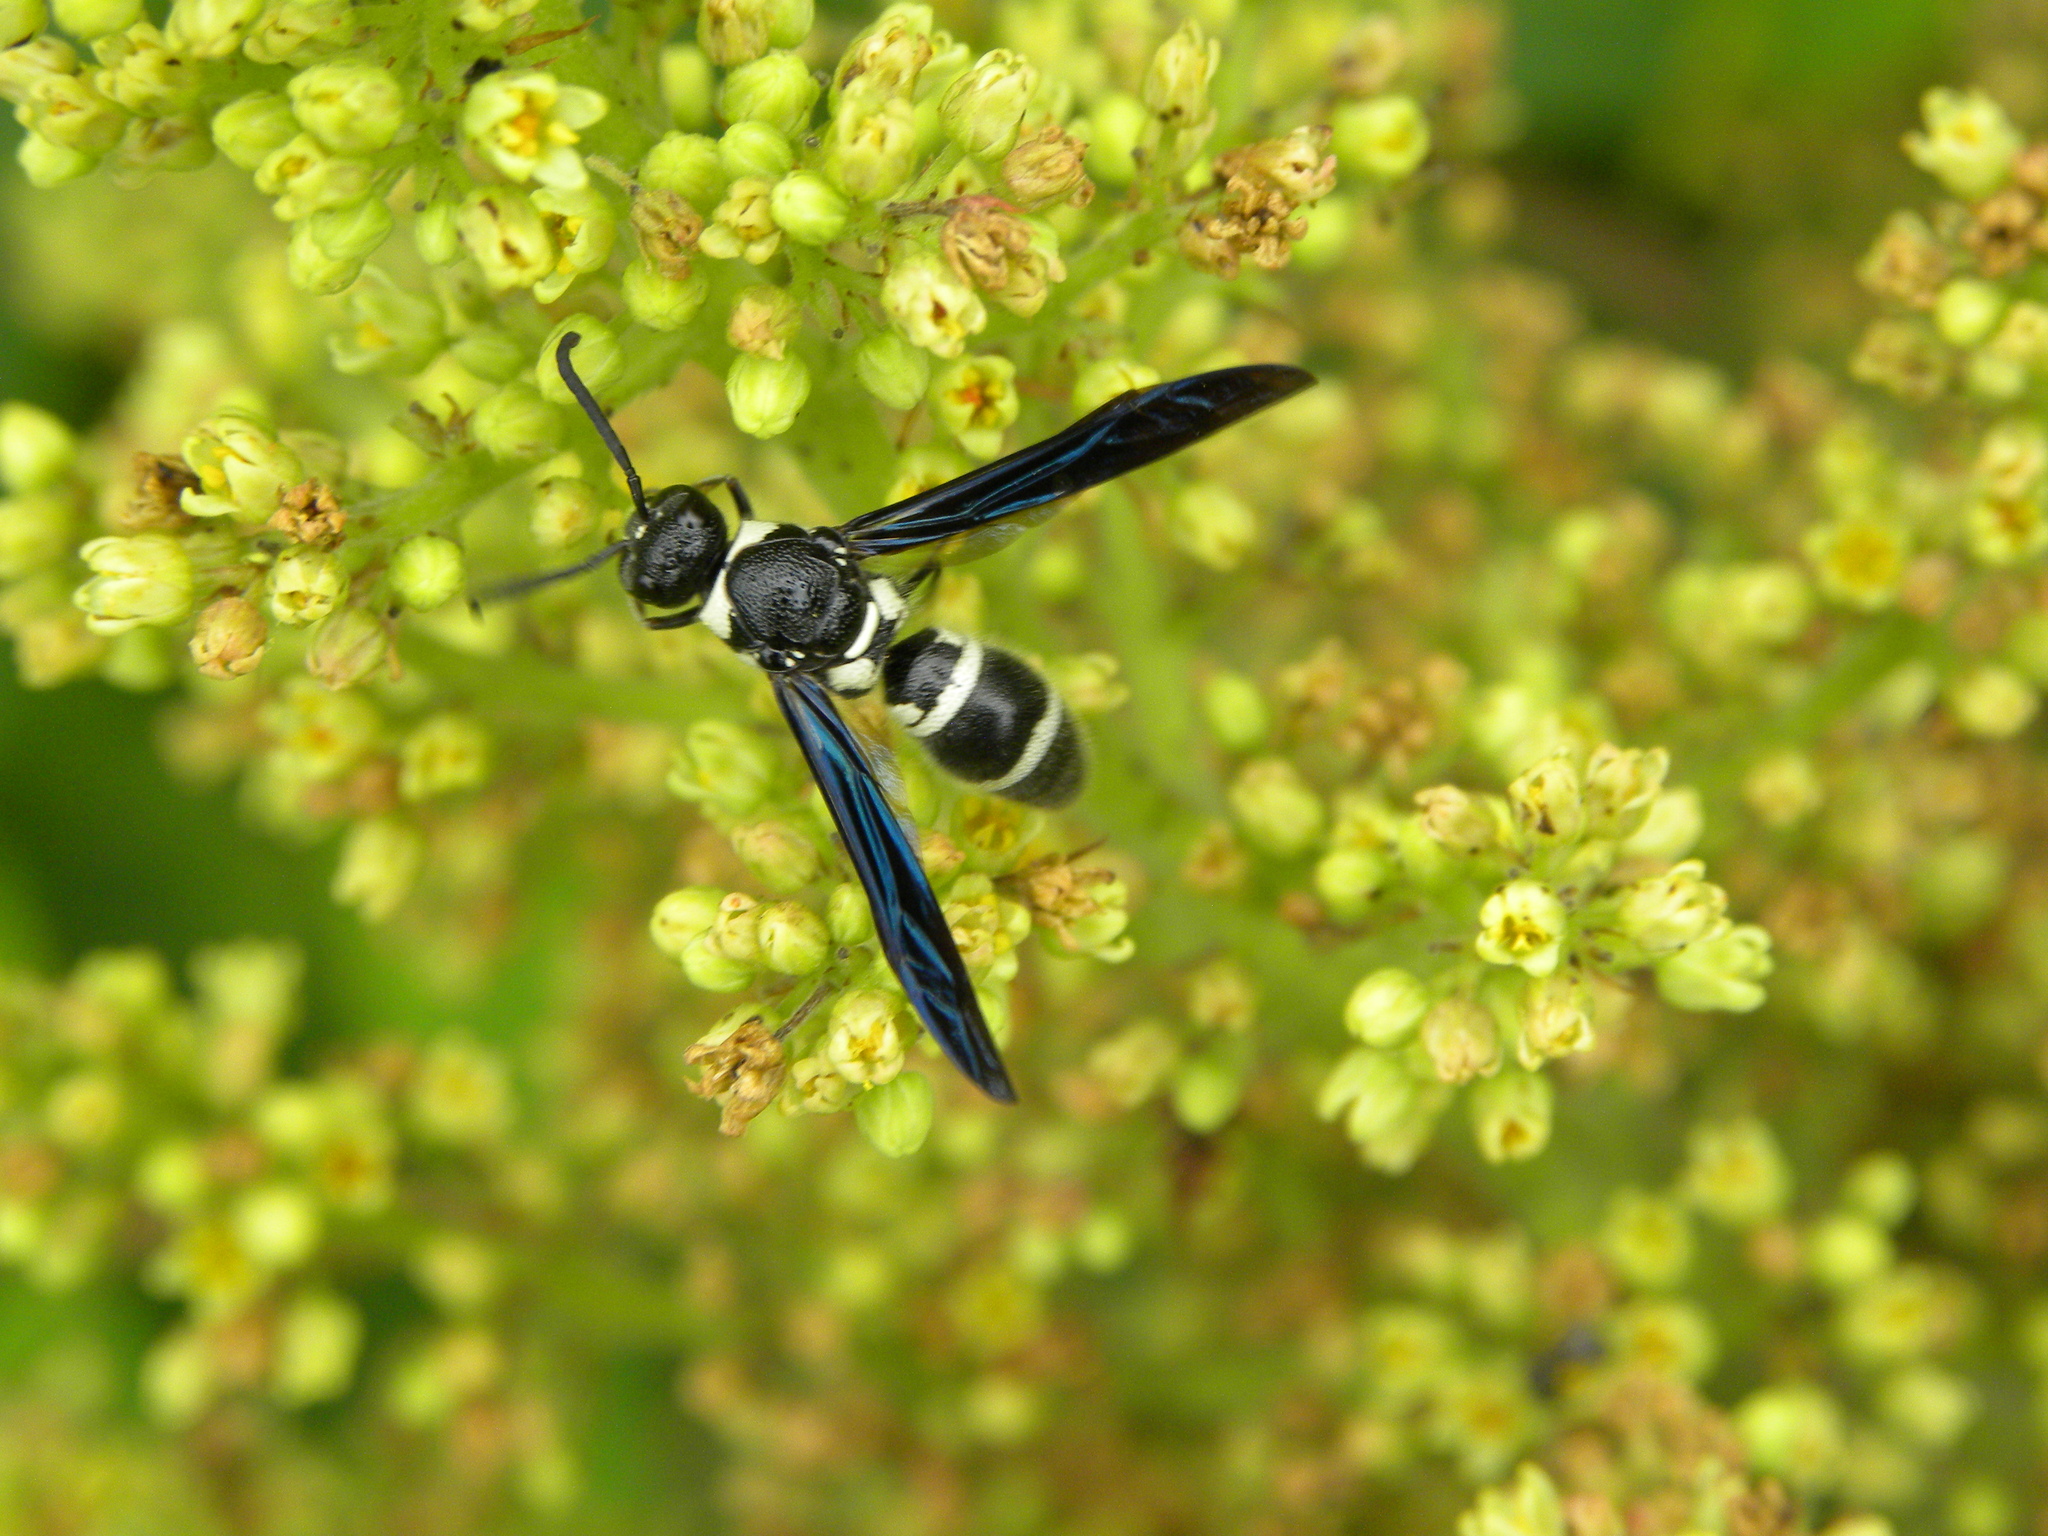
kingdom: Animalia
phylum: Arthropoda
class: Insecta
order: Hymenoptera
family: Eumenidae
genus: Pseudodynerus
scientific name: Pseudodynerus quadrisectus
